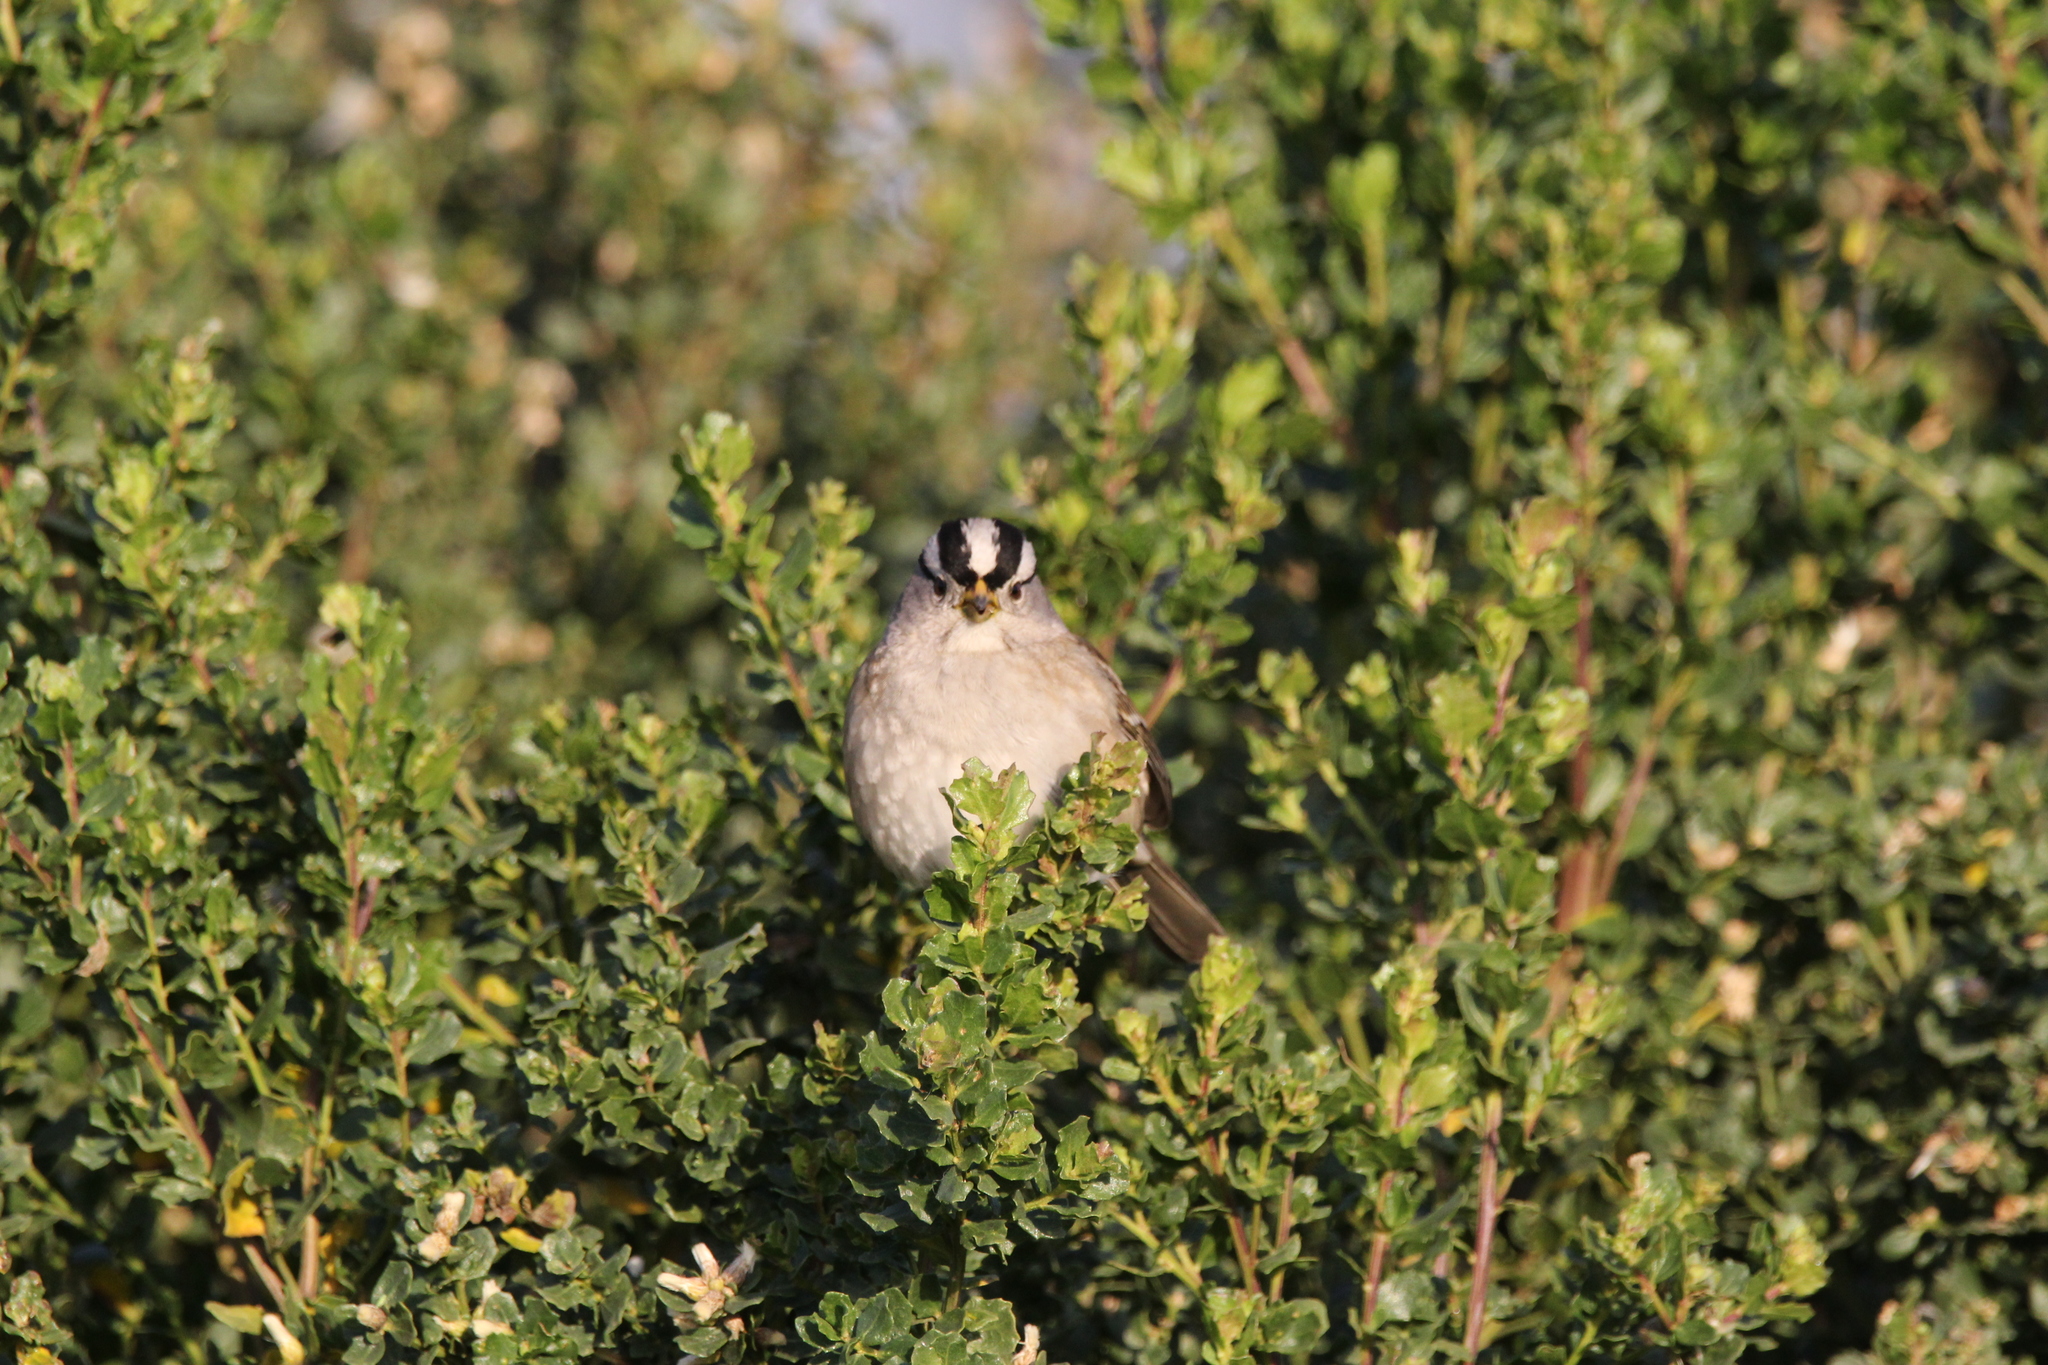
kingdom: Animalia
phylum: Chordata
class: Aves
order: Passeriformes
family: Passerellidae
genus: Zonotrichia
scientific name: Zonotrichia leucophrys
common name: White-crowned sparrow
